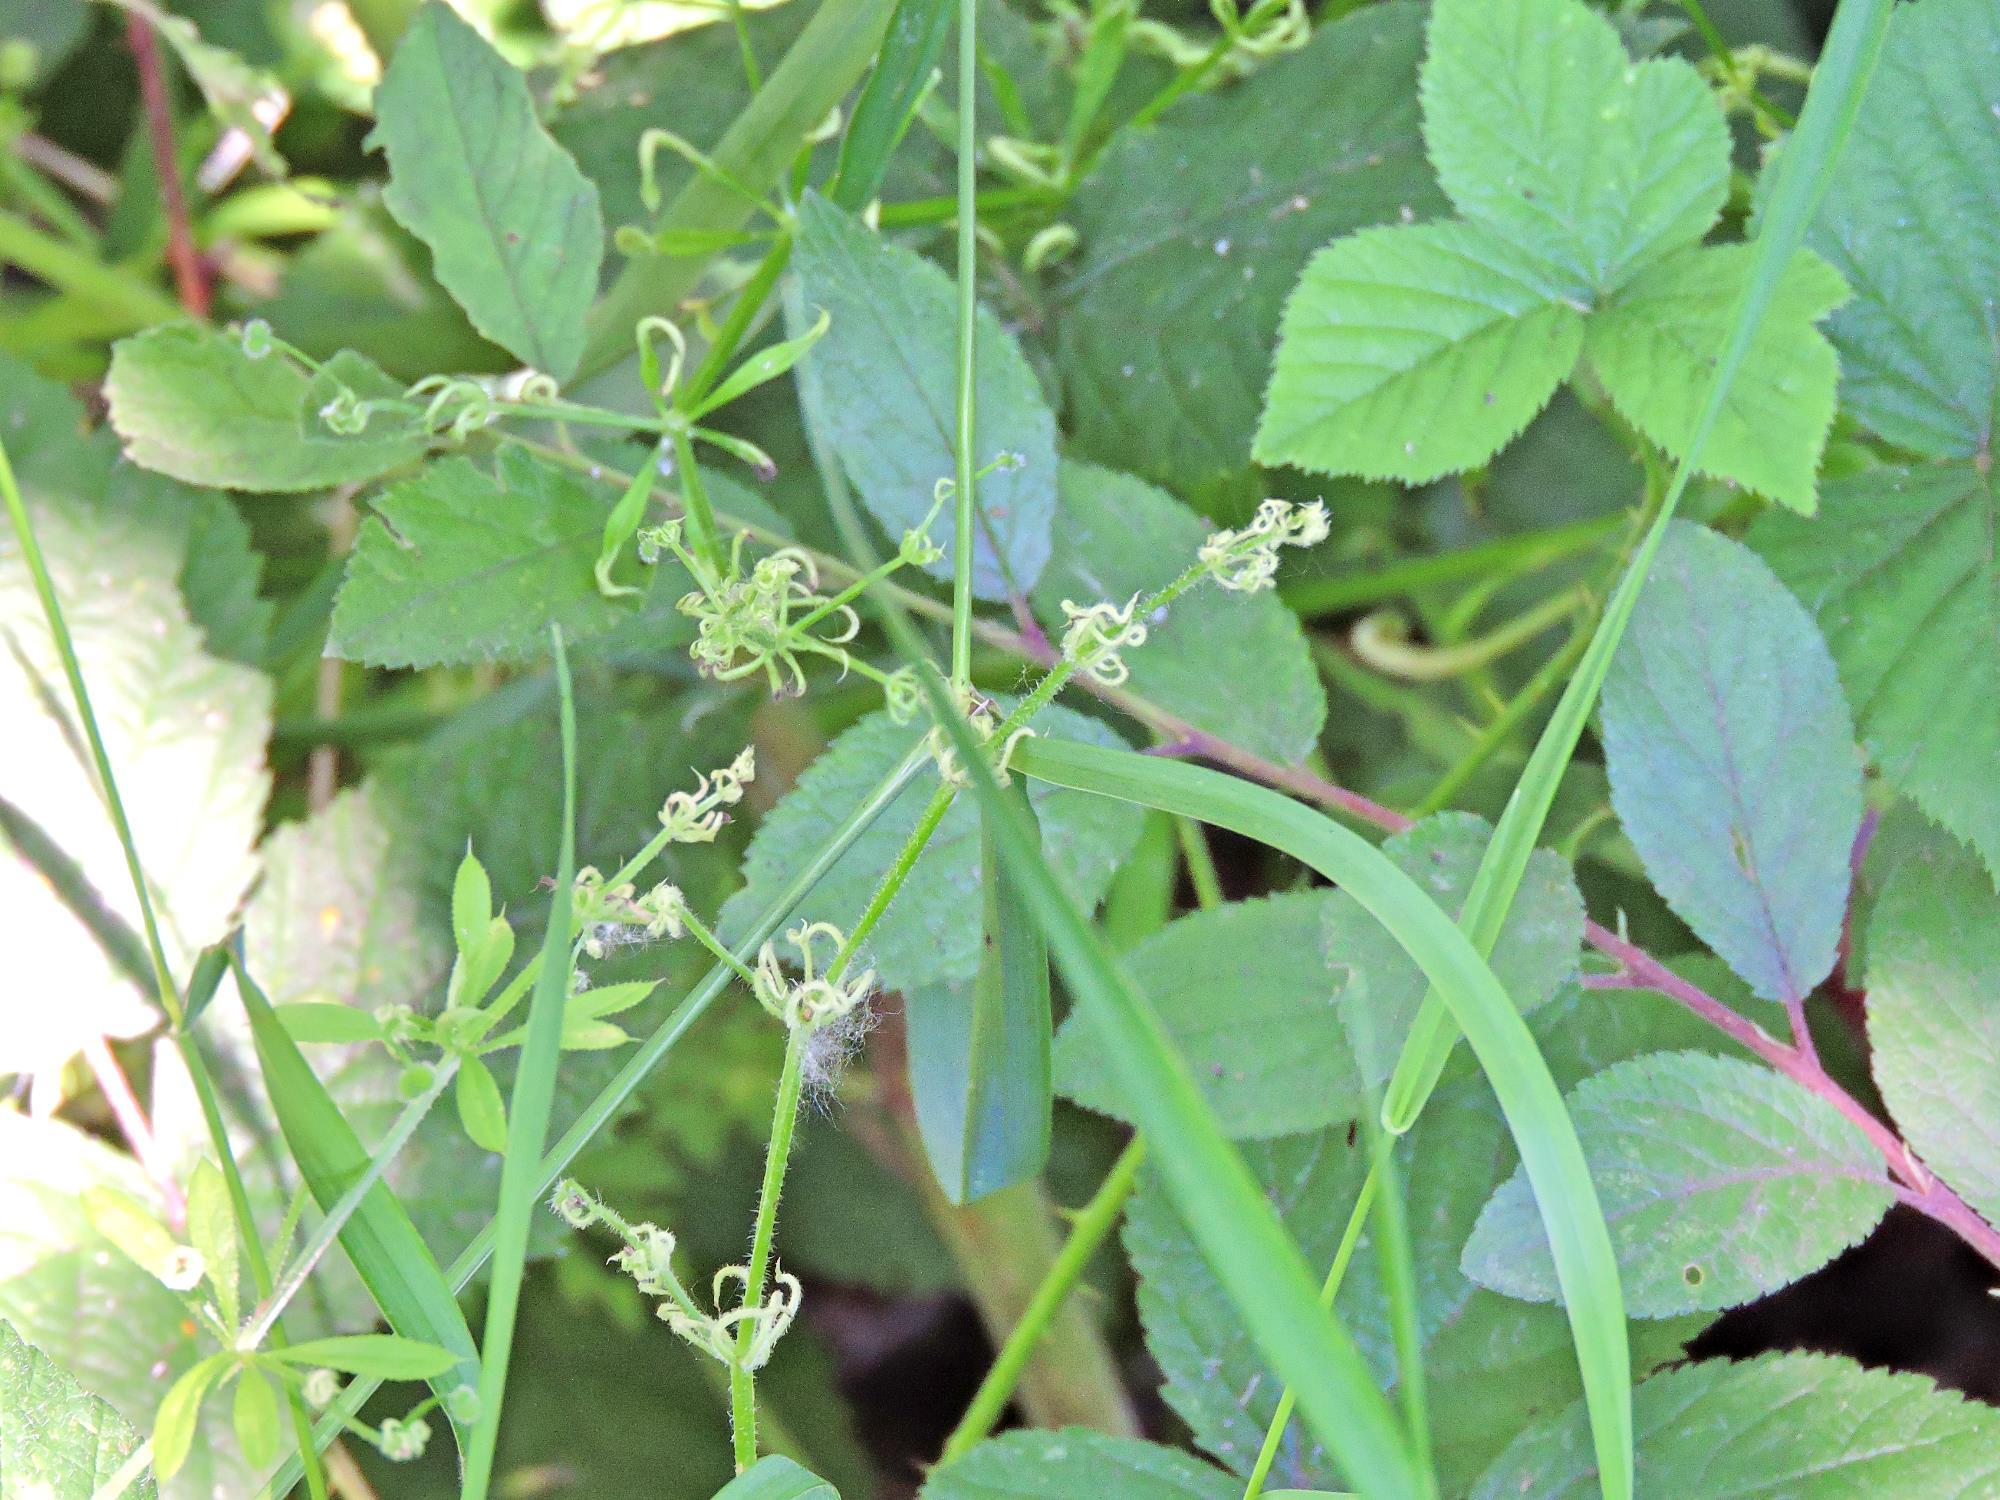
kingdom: Animalia
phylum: Arthropoda
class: Arachnida
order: Trombidiformes
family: Eriophyidae
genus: Cecidophyes
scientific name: Cecidophyes rouhollahi
